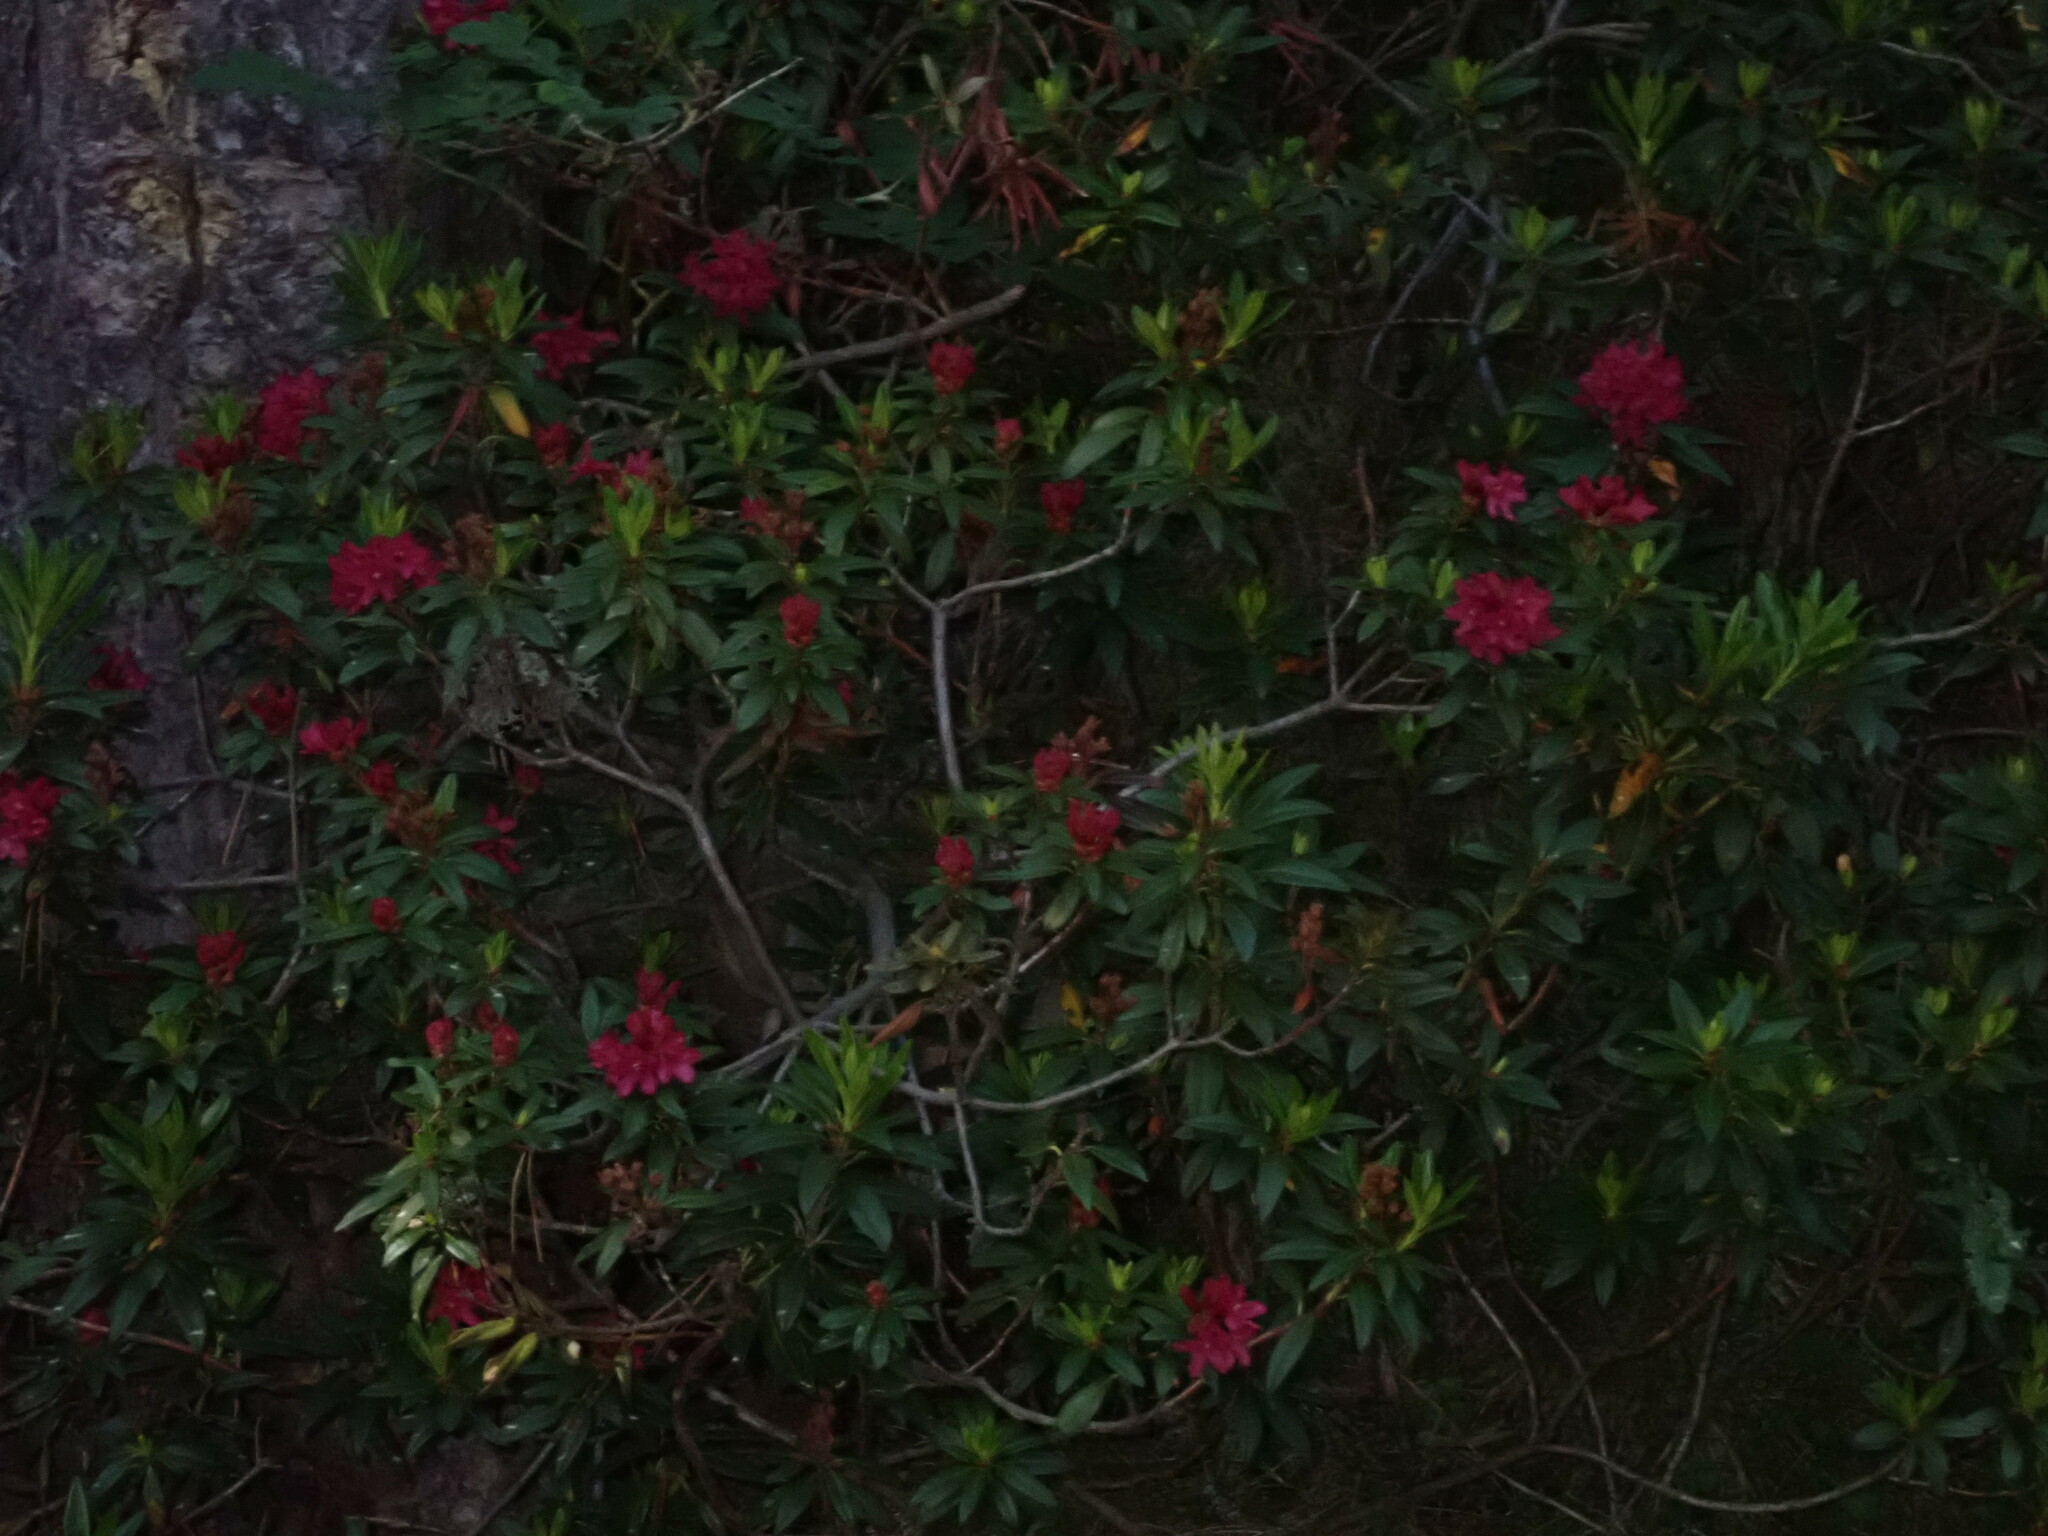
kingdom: Plantae
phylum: Tracheophyta
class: Magnoliopsida
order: Ericales
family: Ericaceae
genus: Rhododendron
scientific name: Rhododendron ferrugineum
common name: Alpenrose
